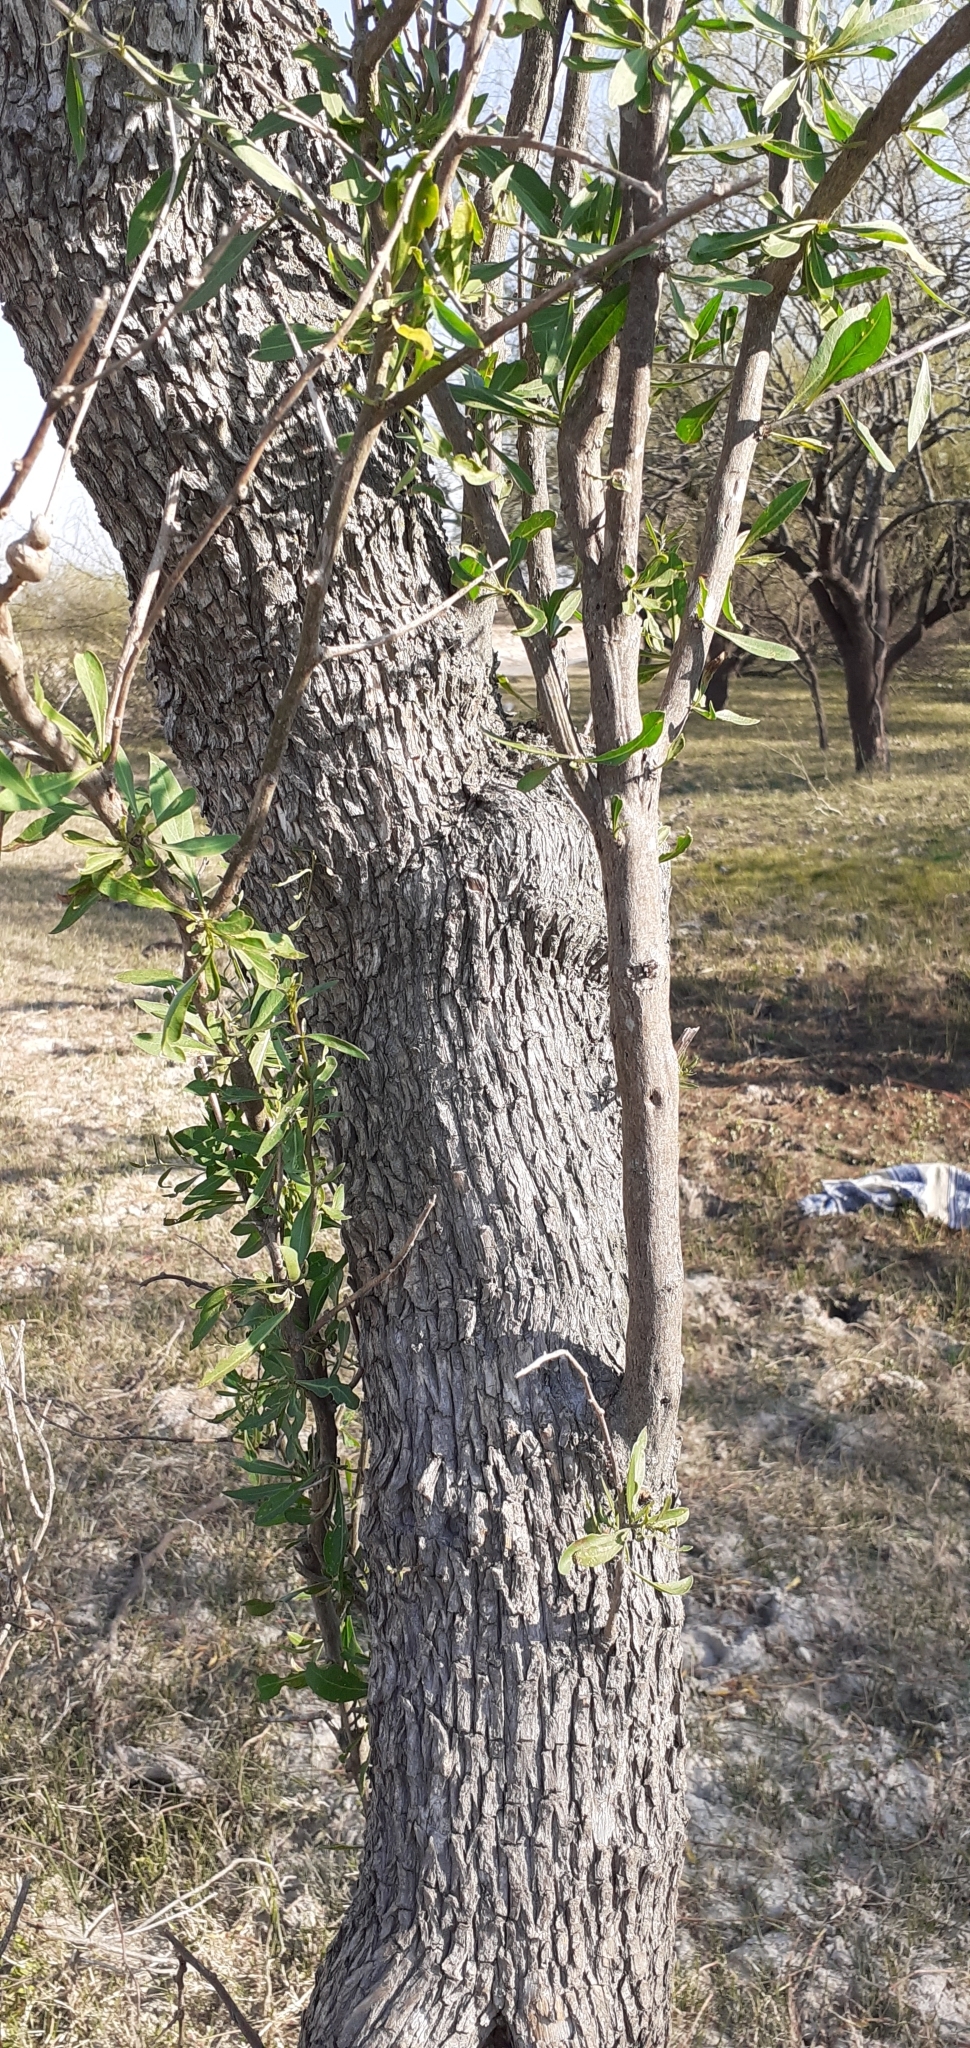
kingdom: Plantae
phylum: Tracheophyta
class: Magnoliopsida
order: Sapindales
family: Anacardiaceae
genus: Schinus
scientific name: Schinus longifolia
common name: Longleaf peppertree
